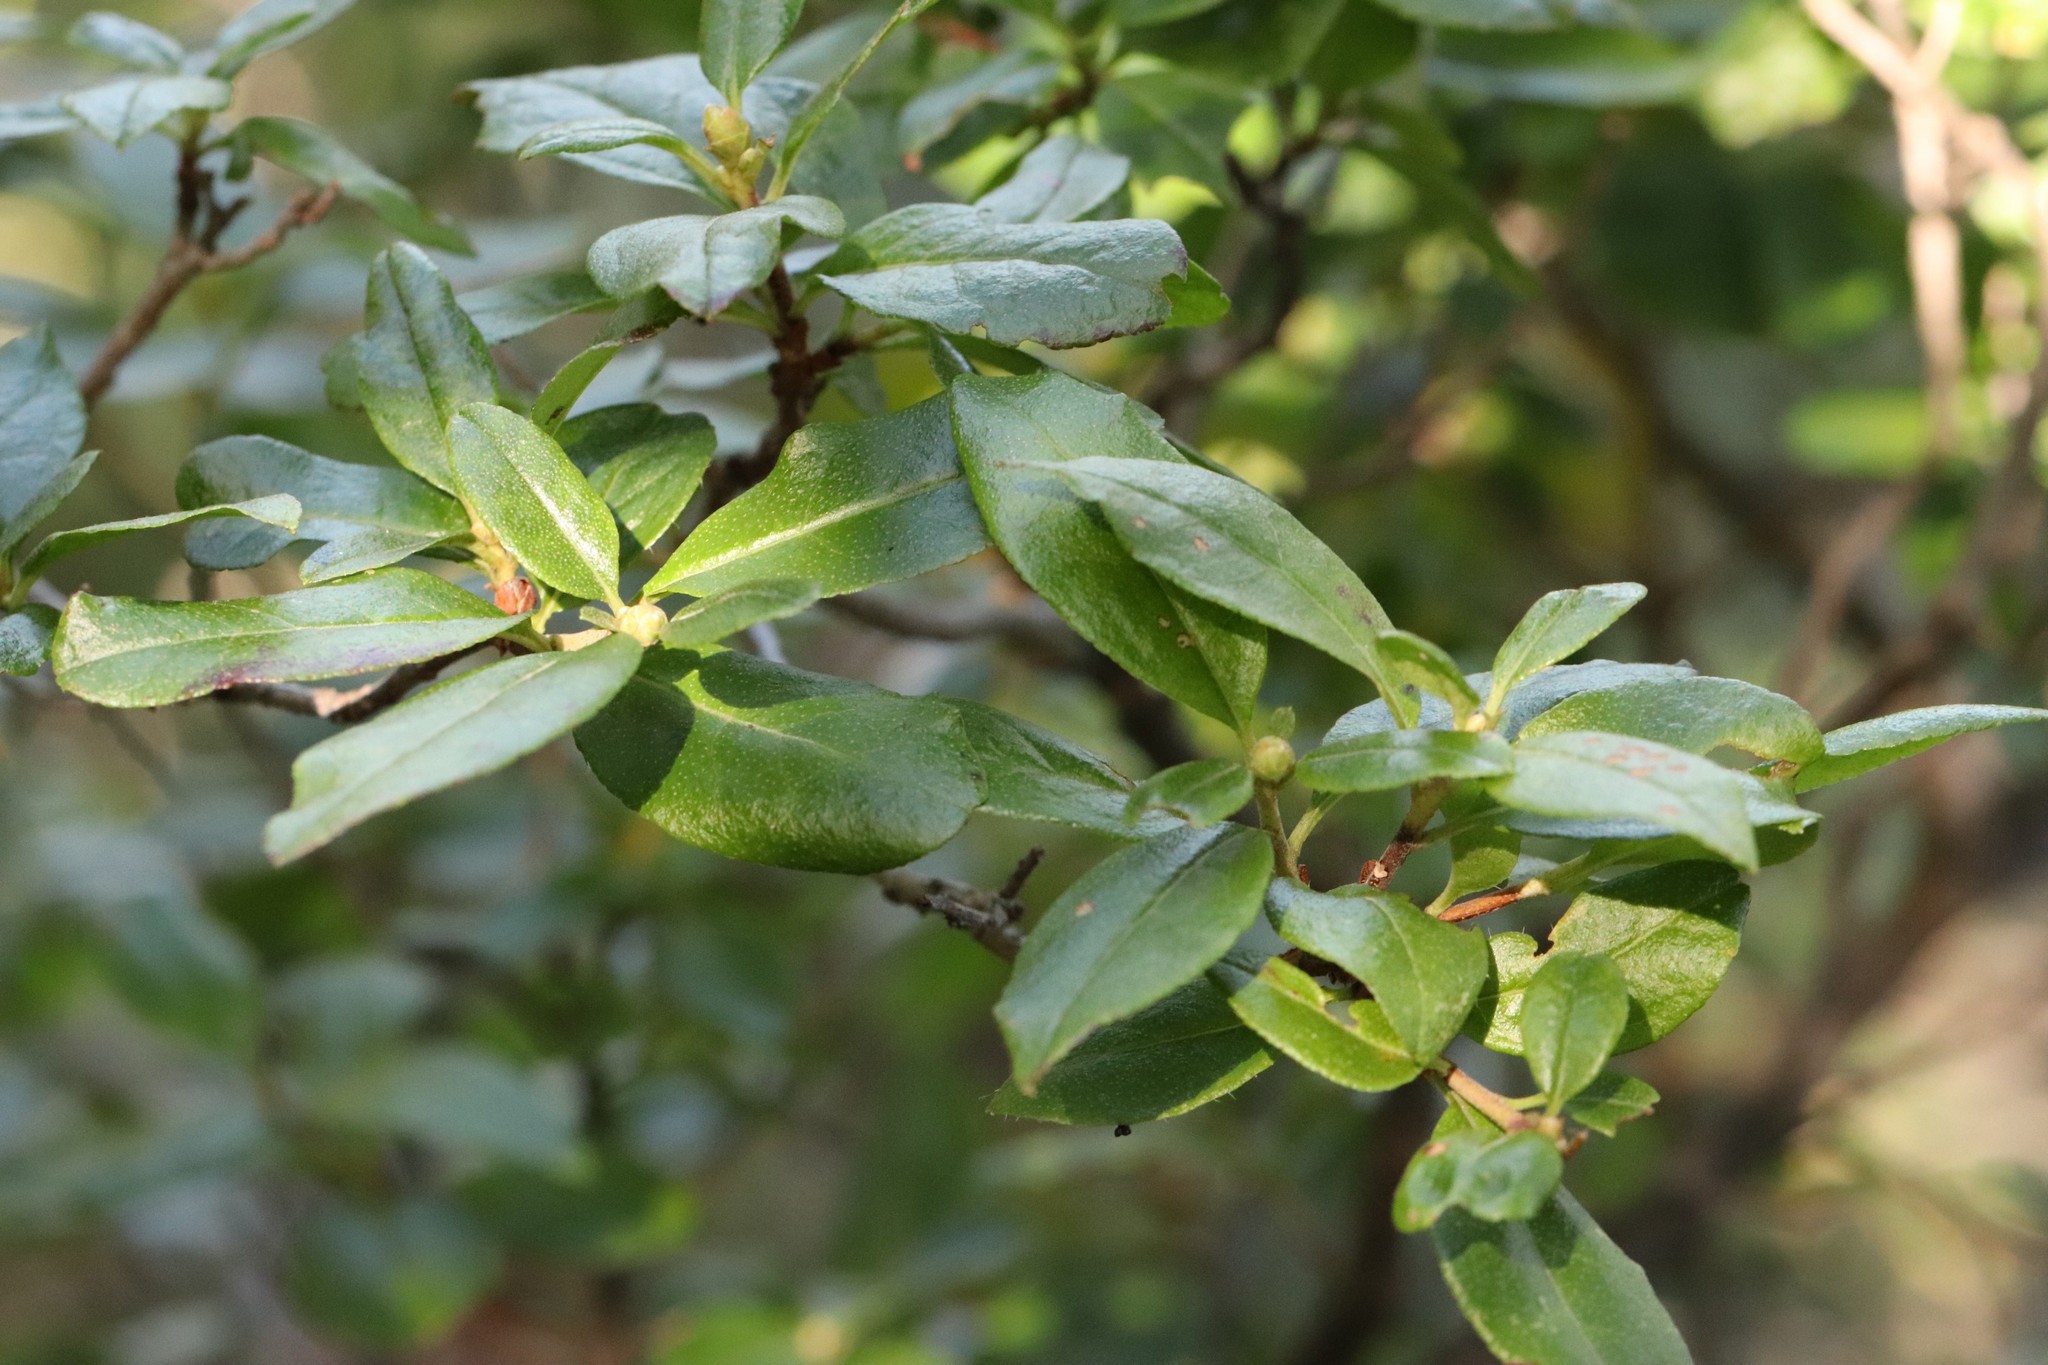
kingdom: Plantae
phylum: Tracheophyta
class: Magnoliopsida
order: Ericales
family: Ericaceae
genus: Rhododendron
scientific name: Rhododendron mucronulatum
